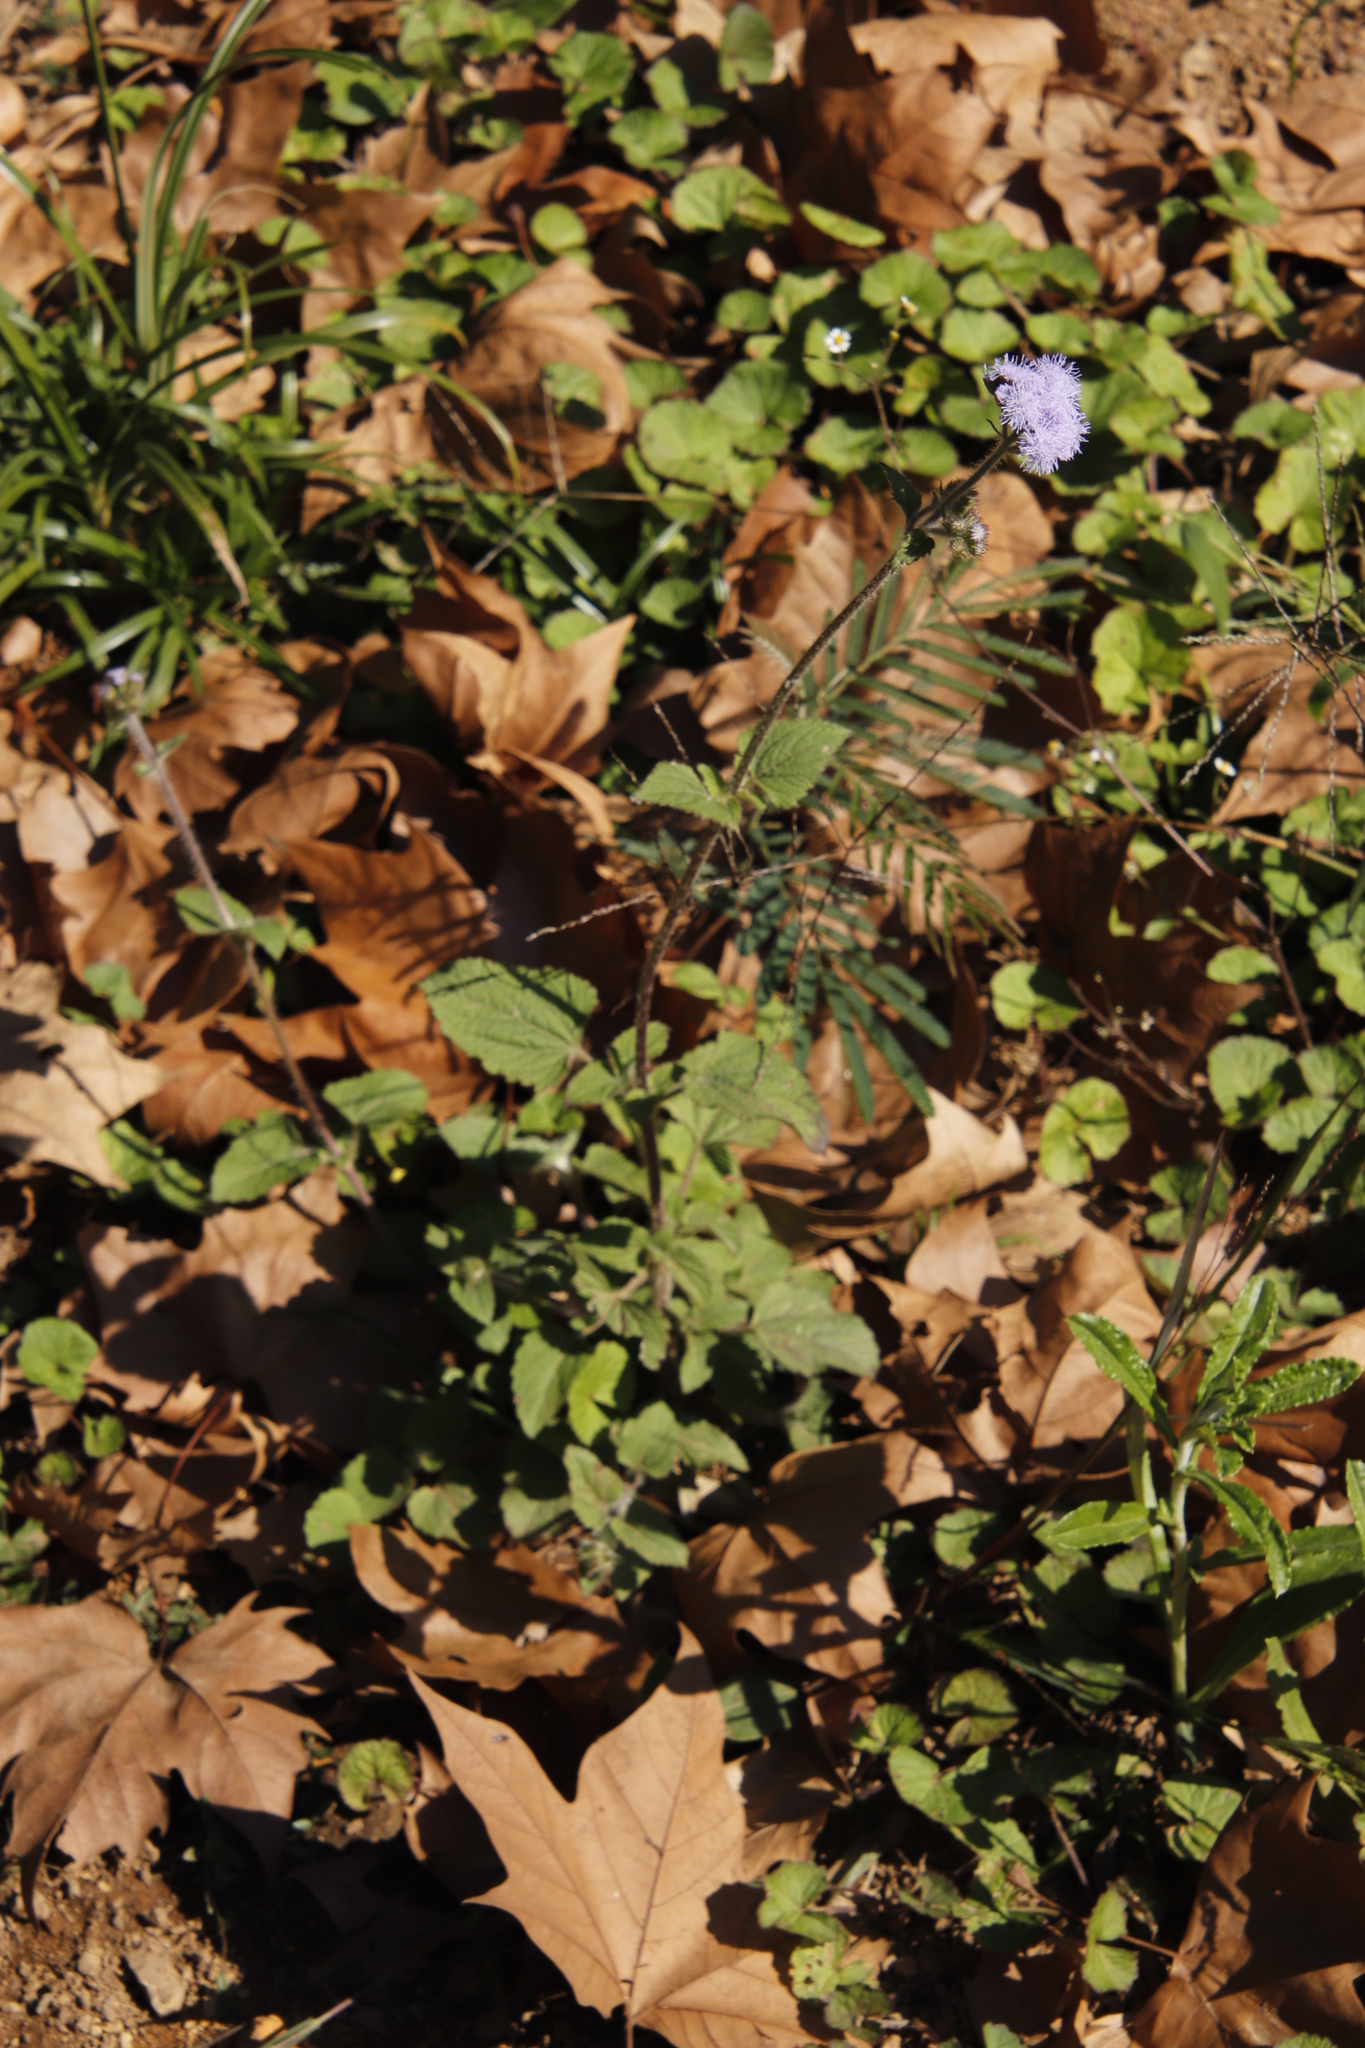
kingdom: Plantae
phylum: Tracheophyta
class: Magnoliopsida
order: Asterales
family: Asteraceae
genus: Ageratum
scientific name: Ageratum houstonianum
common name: Bluemink
